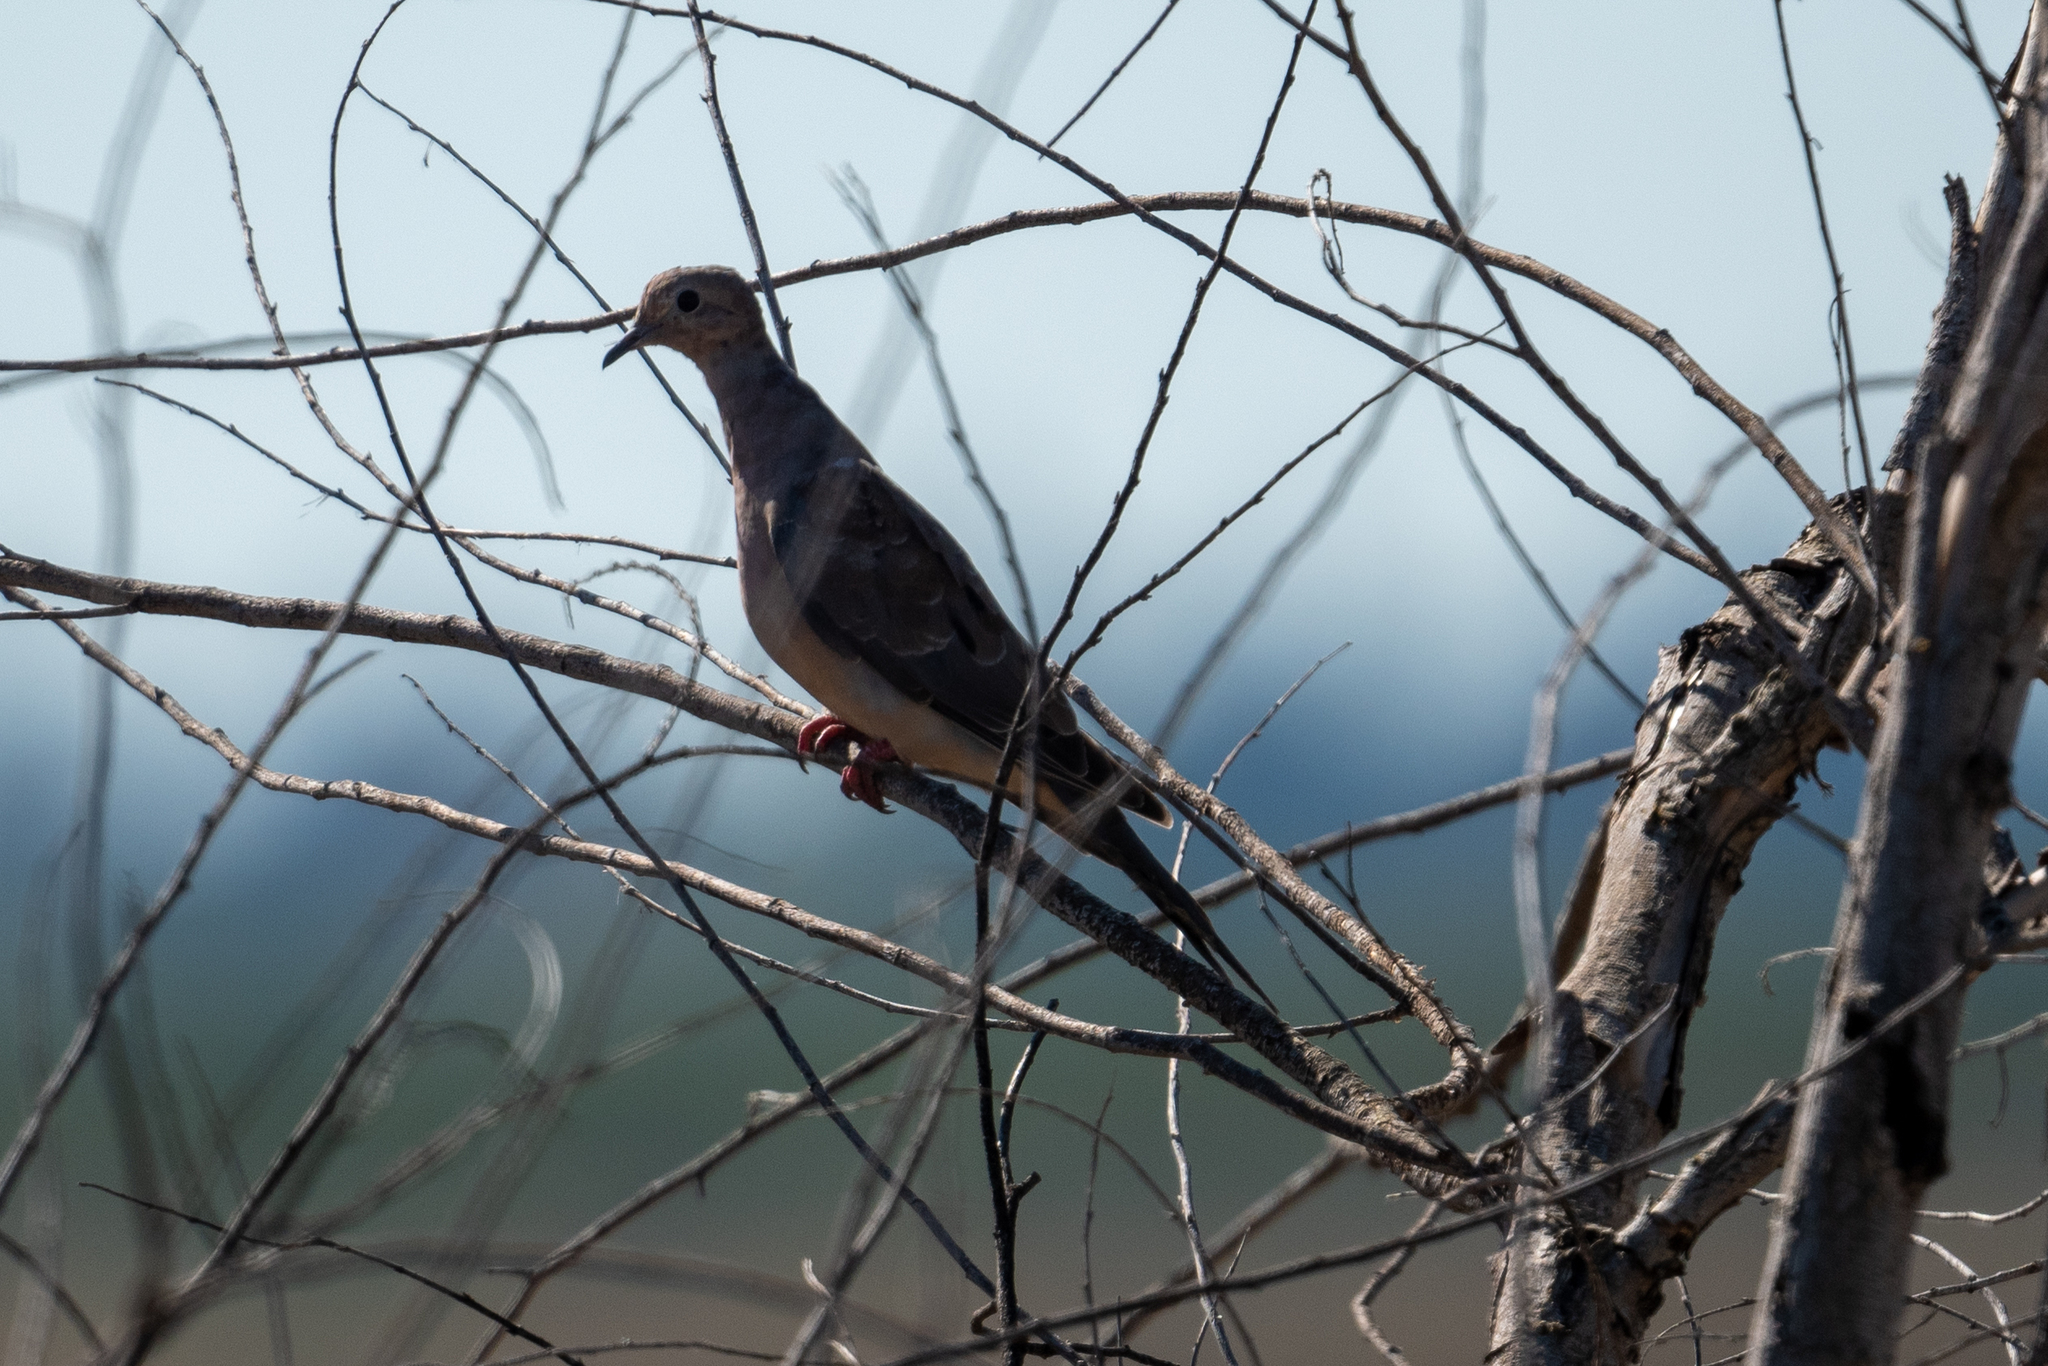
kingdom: Animalia
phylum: Chordata
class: Aves
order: Columbiformes
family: Columbidae
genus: Zenaida
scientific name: Zenaida macroura
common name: Mourning dove
